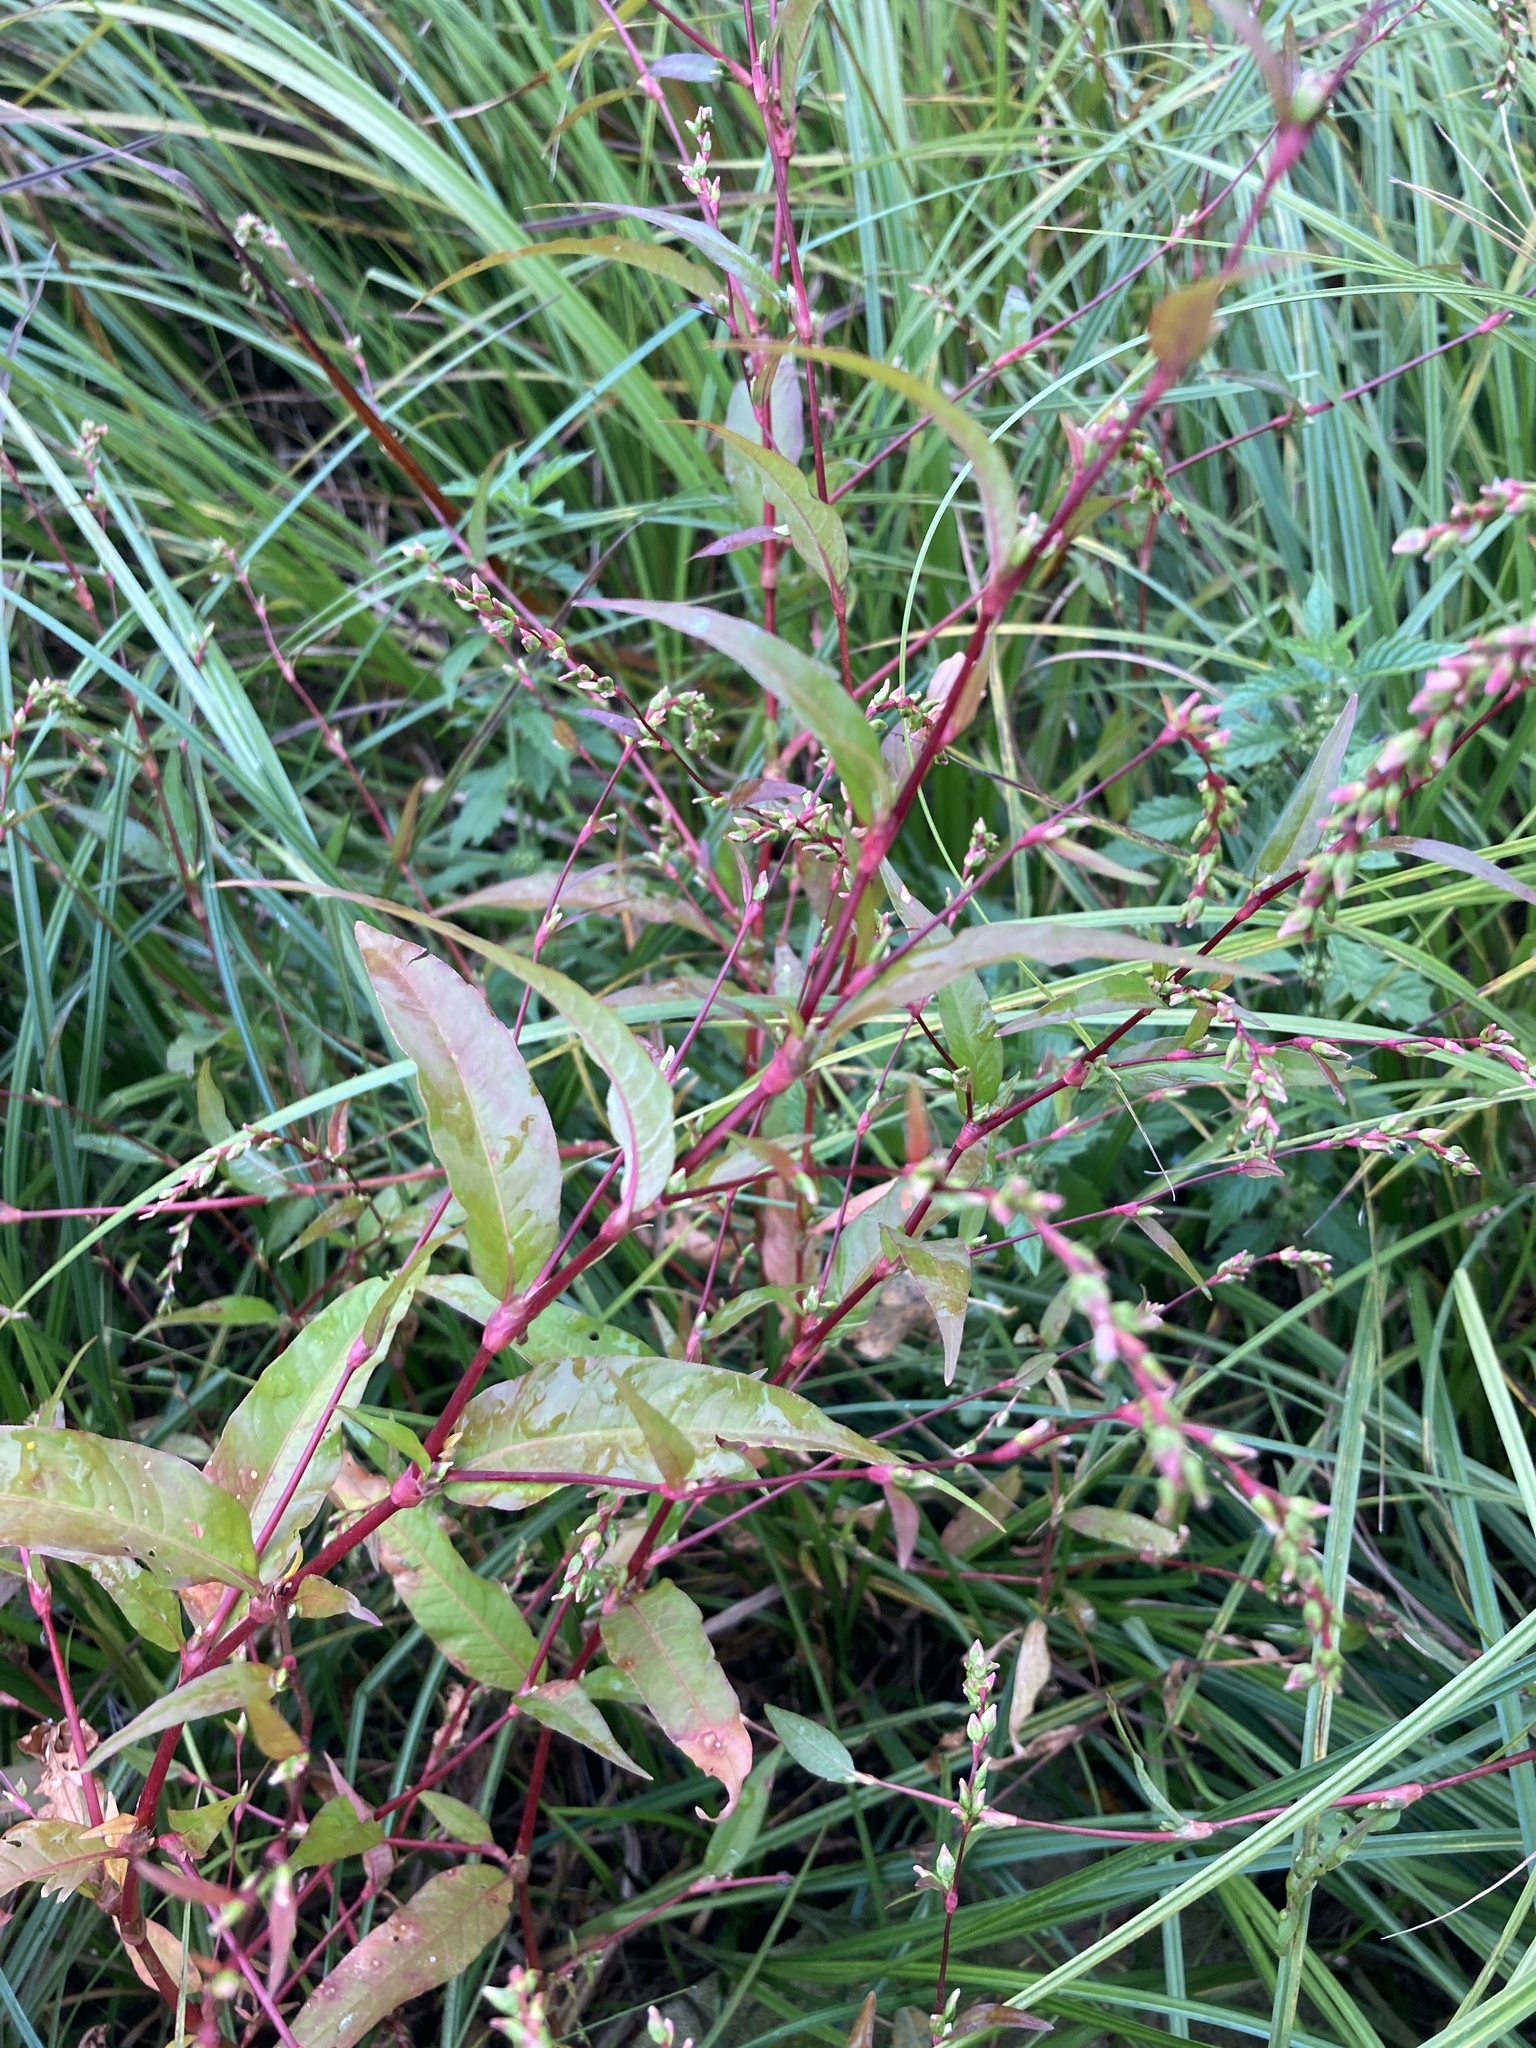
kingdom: Plantae
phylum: Tracheophyta
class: Magnoliopsida
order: Caryophyllales
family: Polygonaceae
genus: Persicaria
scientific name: Persicaria hydropiper
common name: Water-pepper
